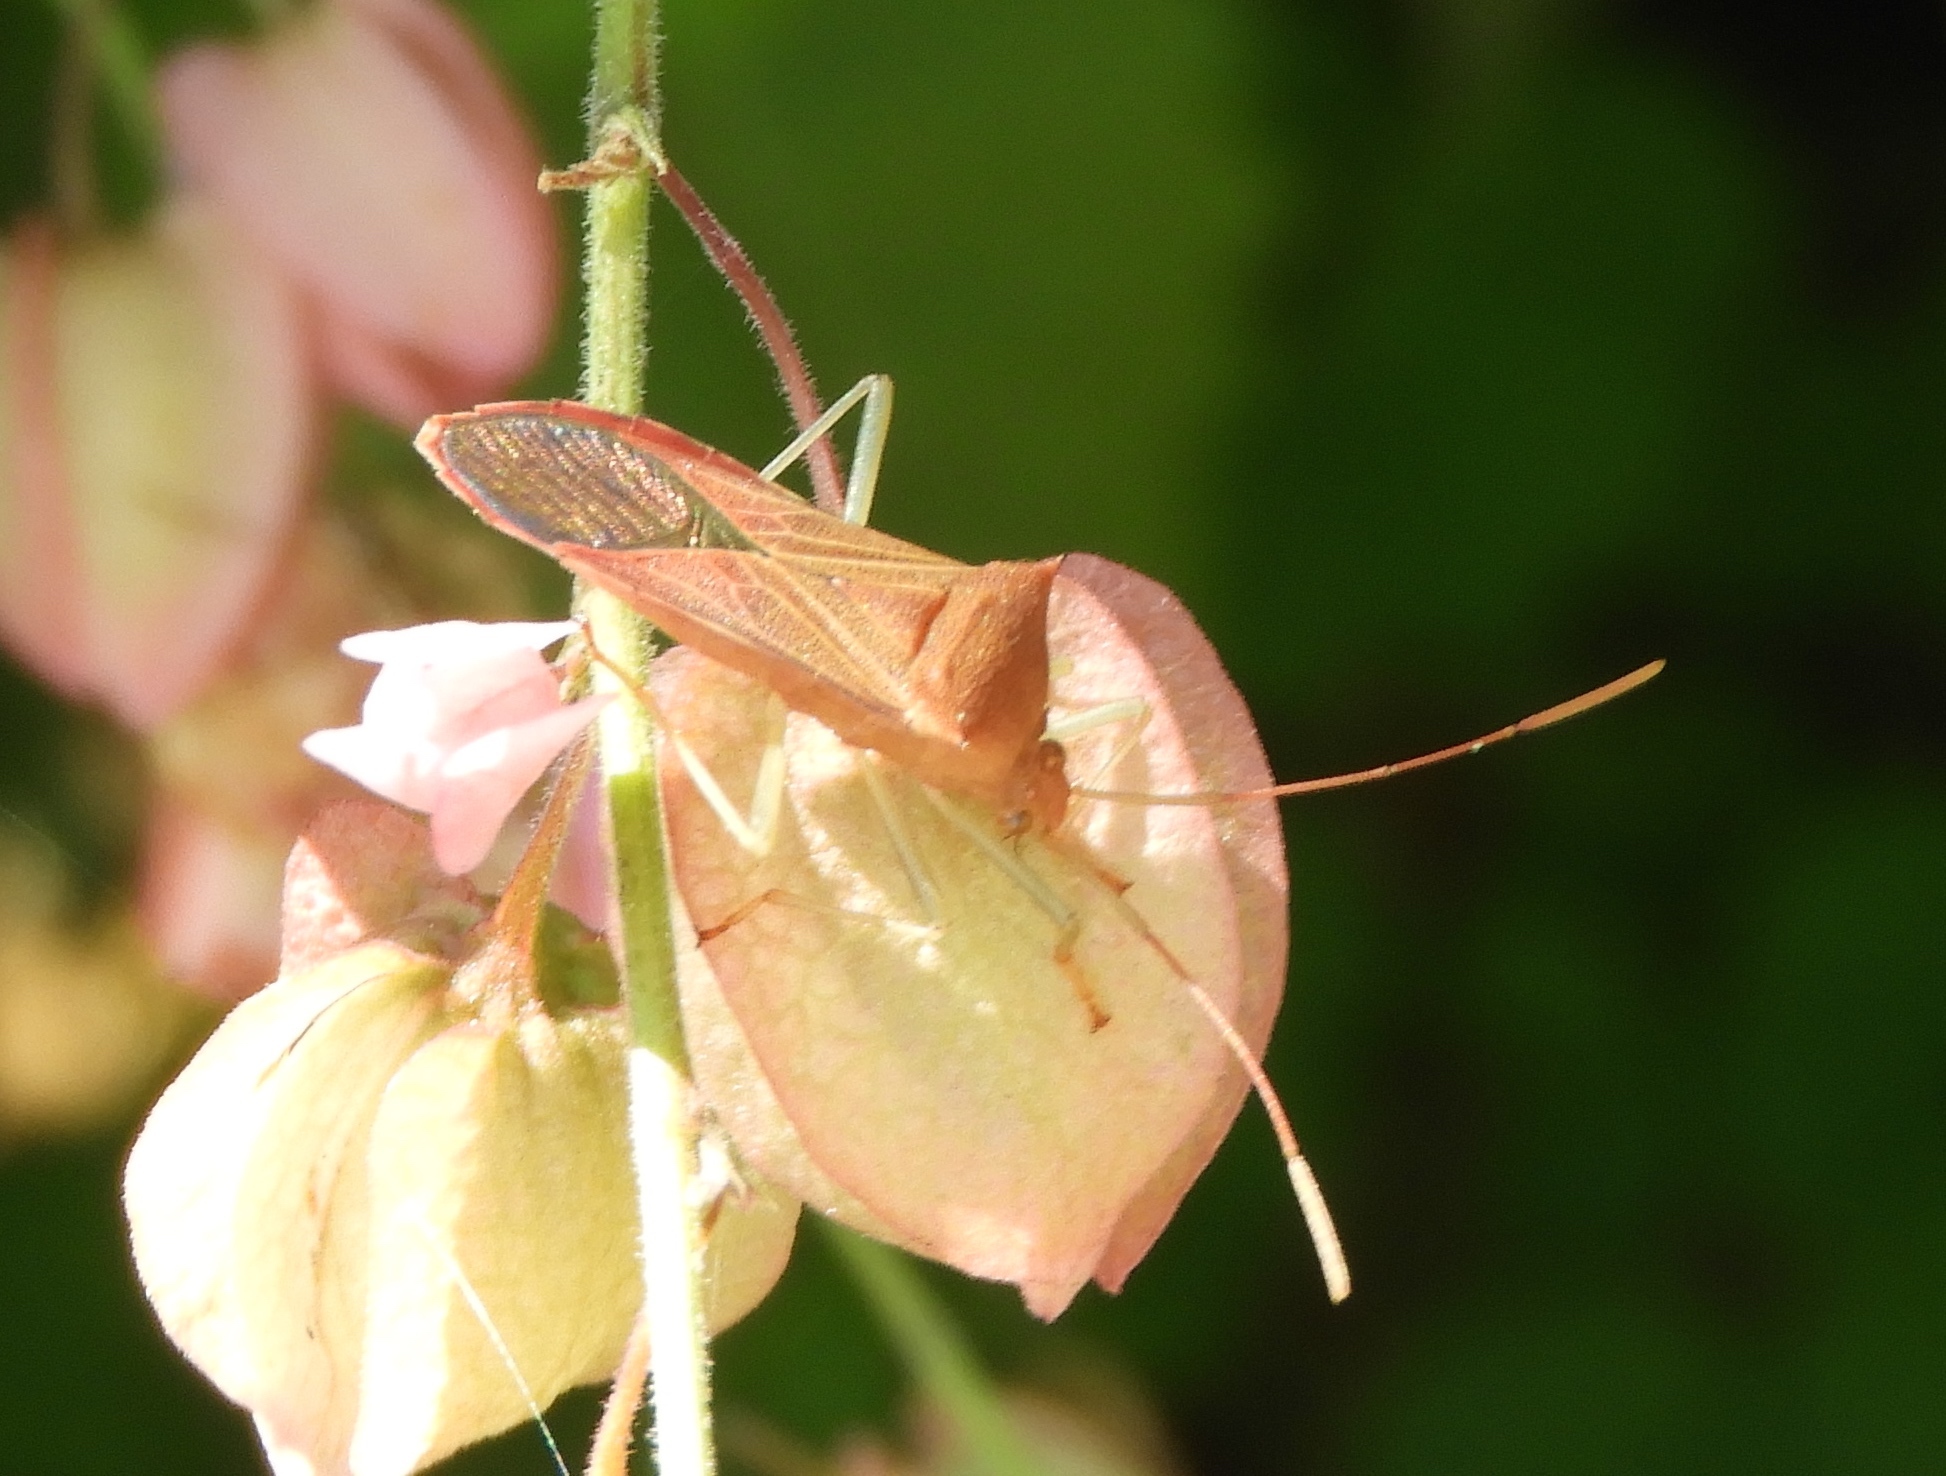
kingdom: Animalia
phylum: Arthropoda
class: Insecta
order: Hemiptera
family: Coreidae
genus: Daphnasa
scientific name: Daphnasa
